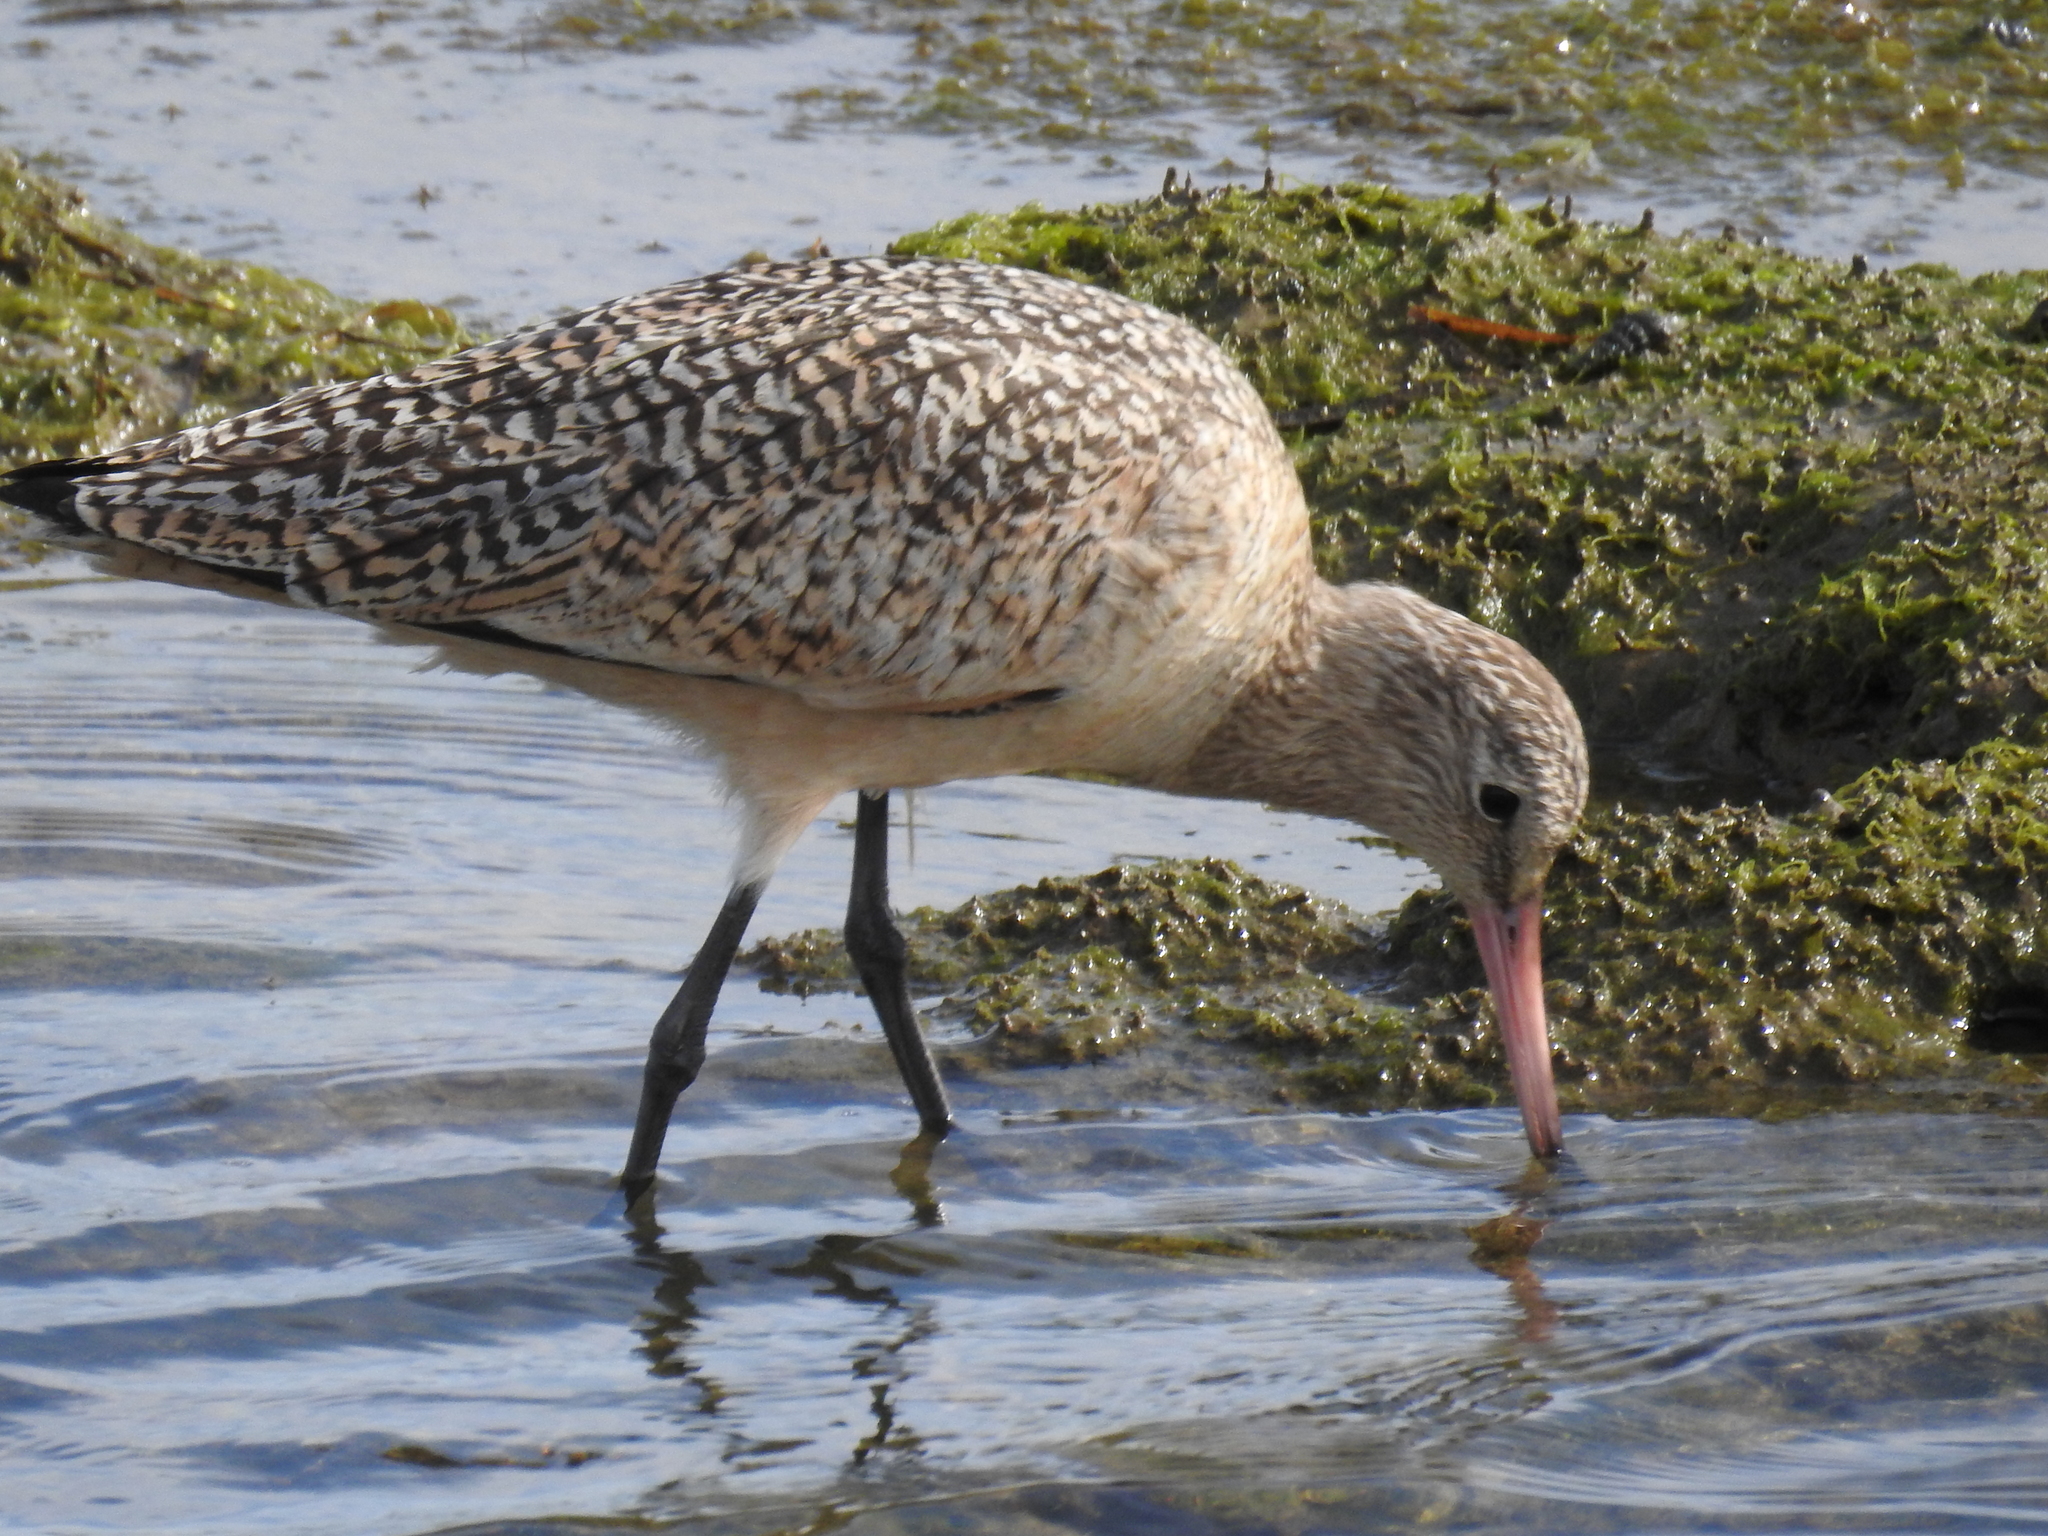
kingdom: Animalia
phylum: Chordata
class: Aves
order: Charadriiformes
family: Scolopacidae
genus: Limosa
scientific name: Limosa fedoa
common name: Marbled godwit
